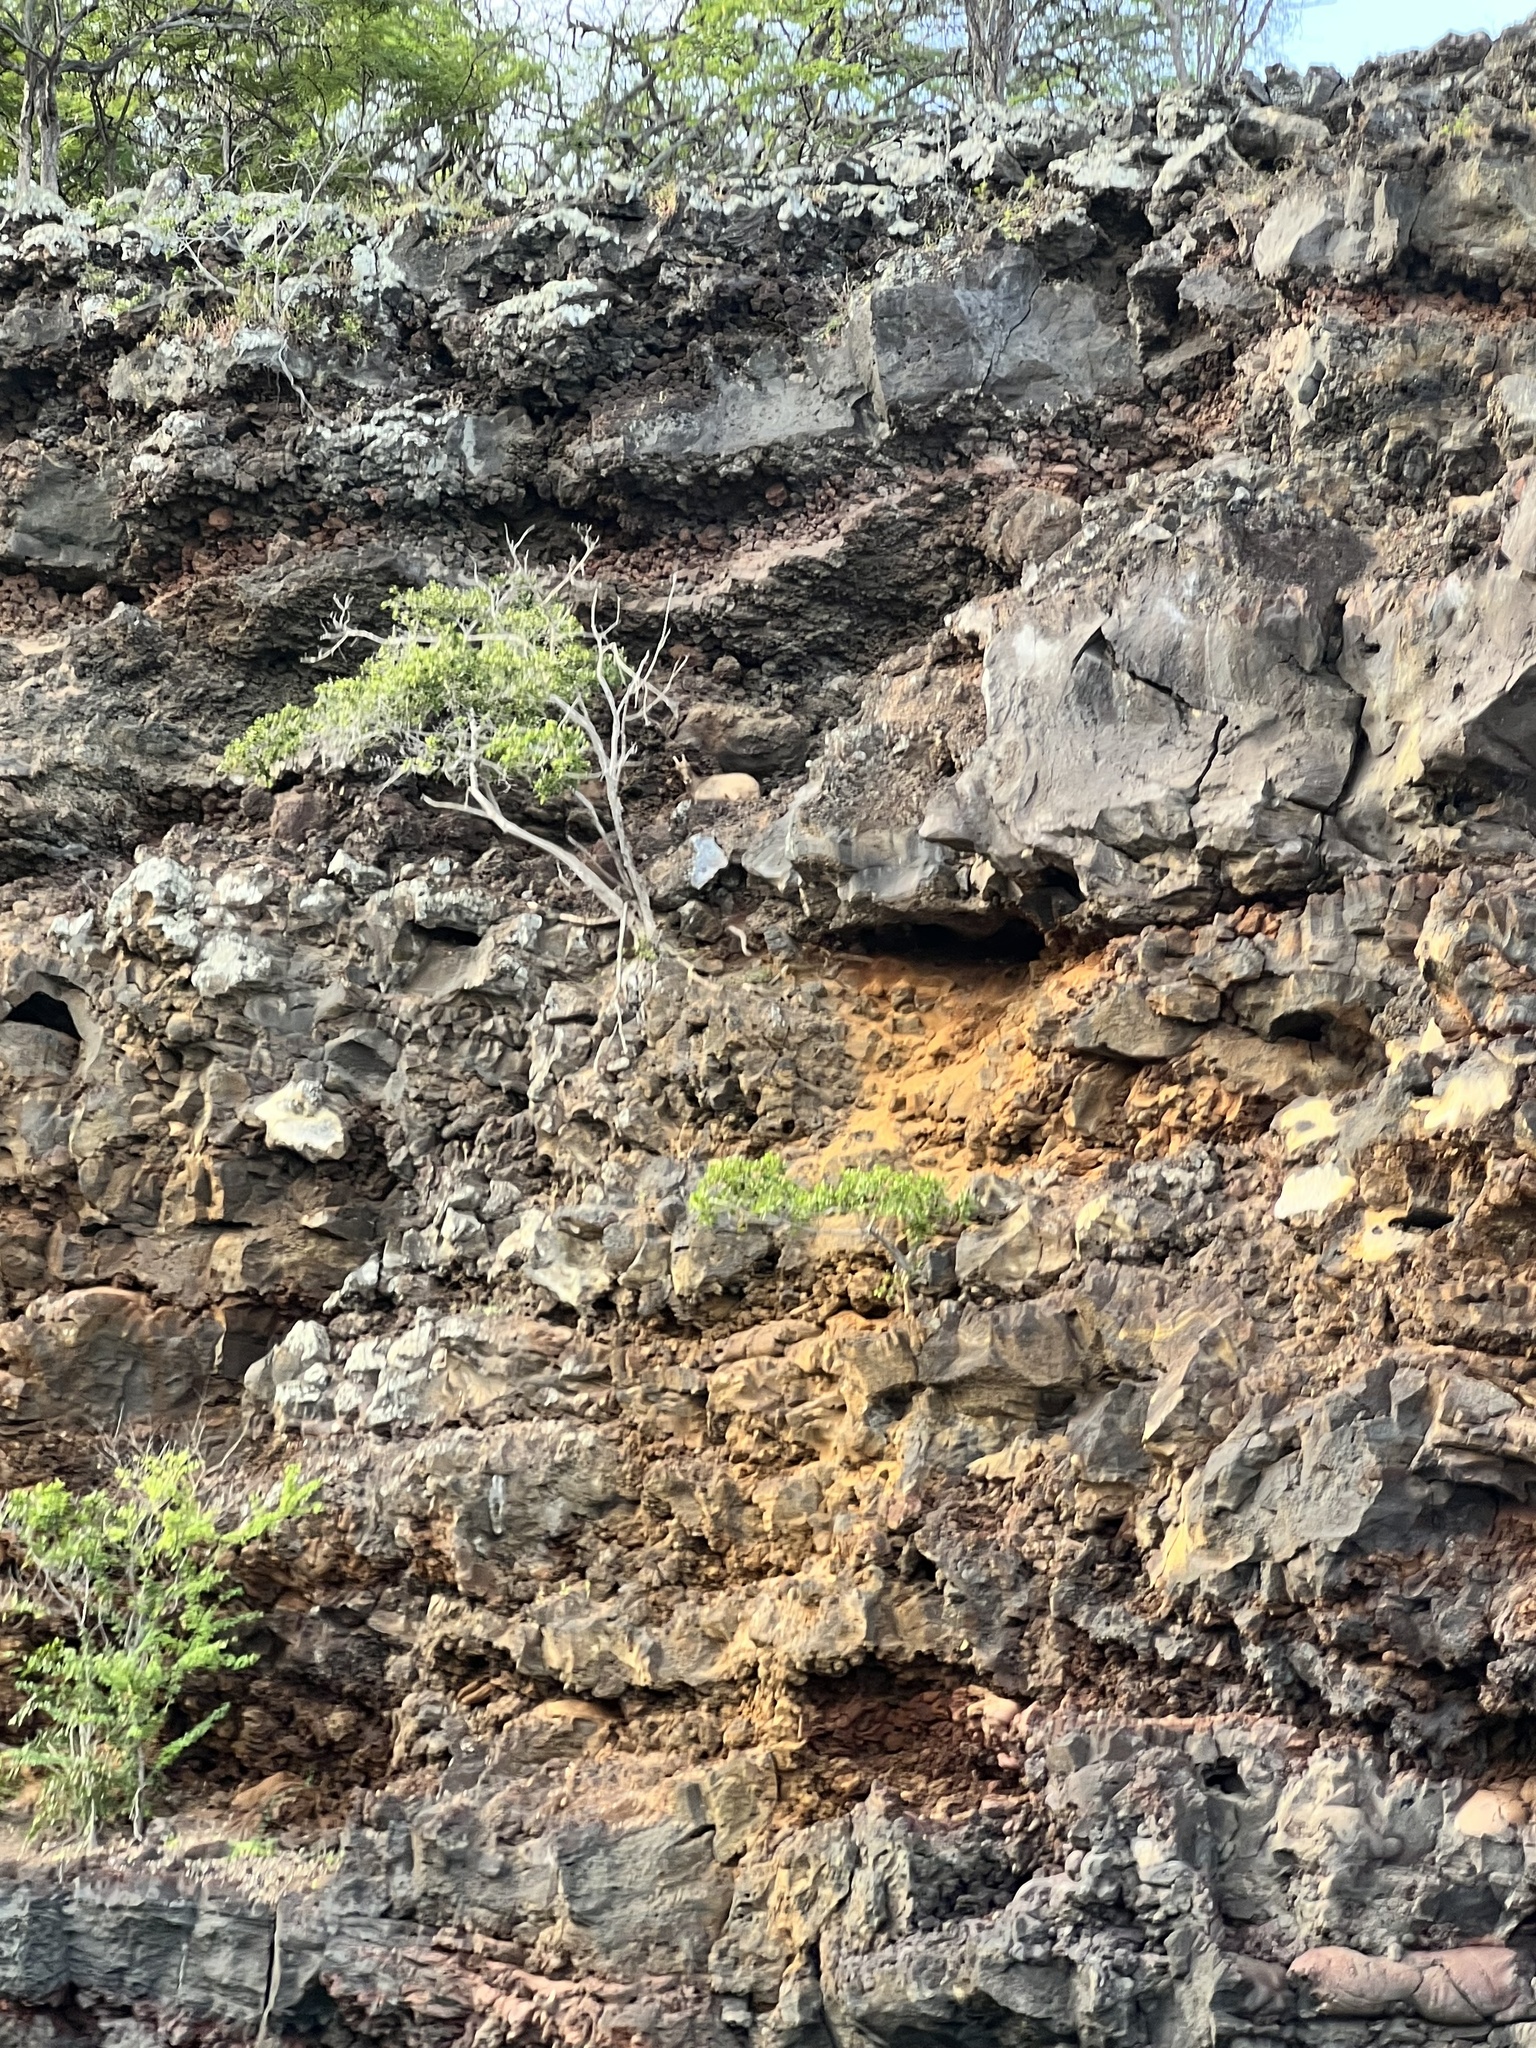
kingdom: Animalia
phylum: Chordata
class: Mammalia
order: Artiodactyla
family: Bovidae
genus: Capra
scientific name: Capra hircus
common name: Domestic goat
